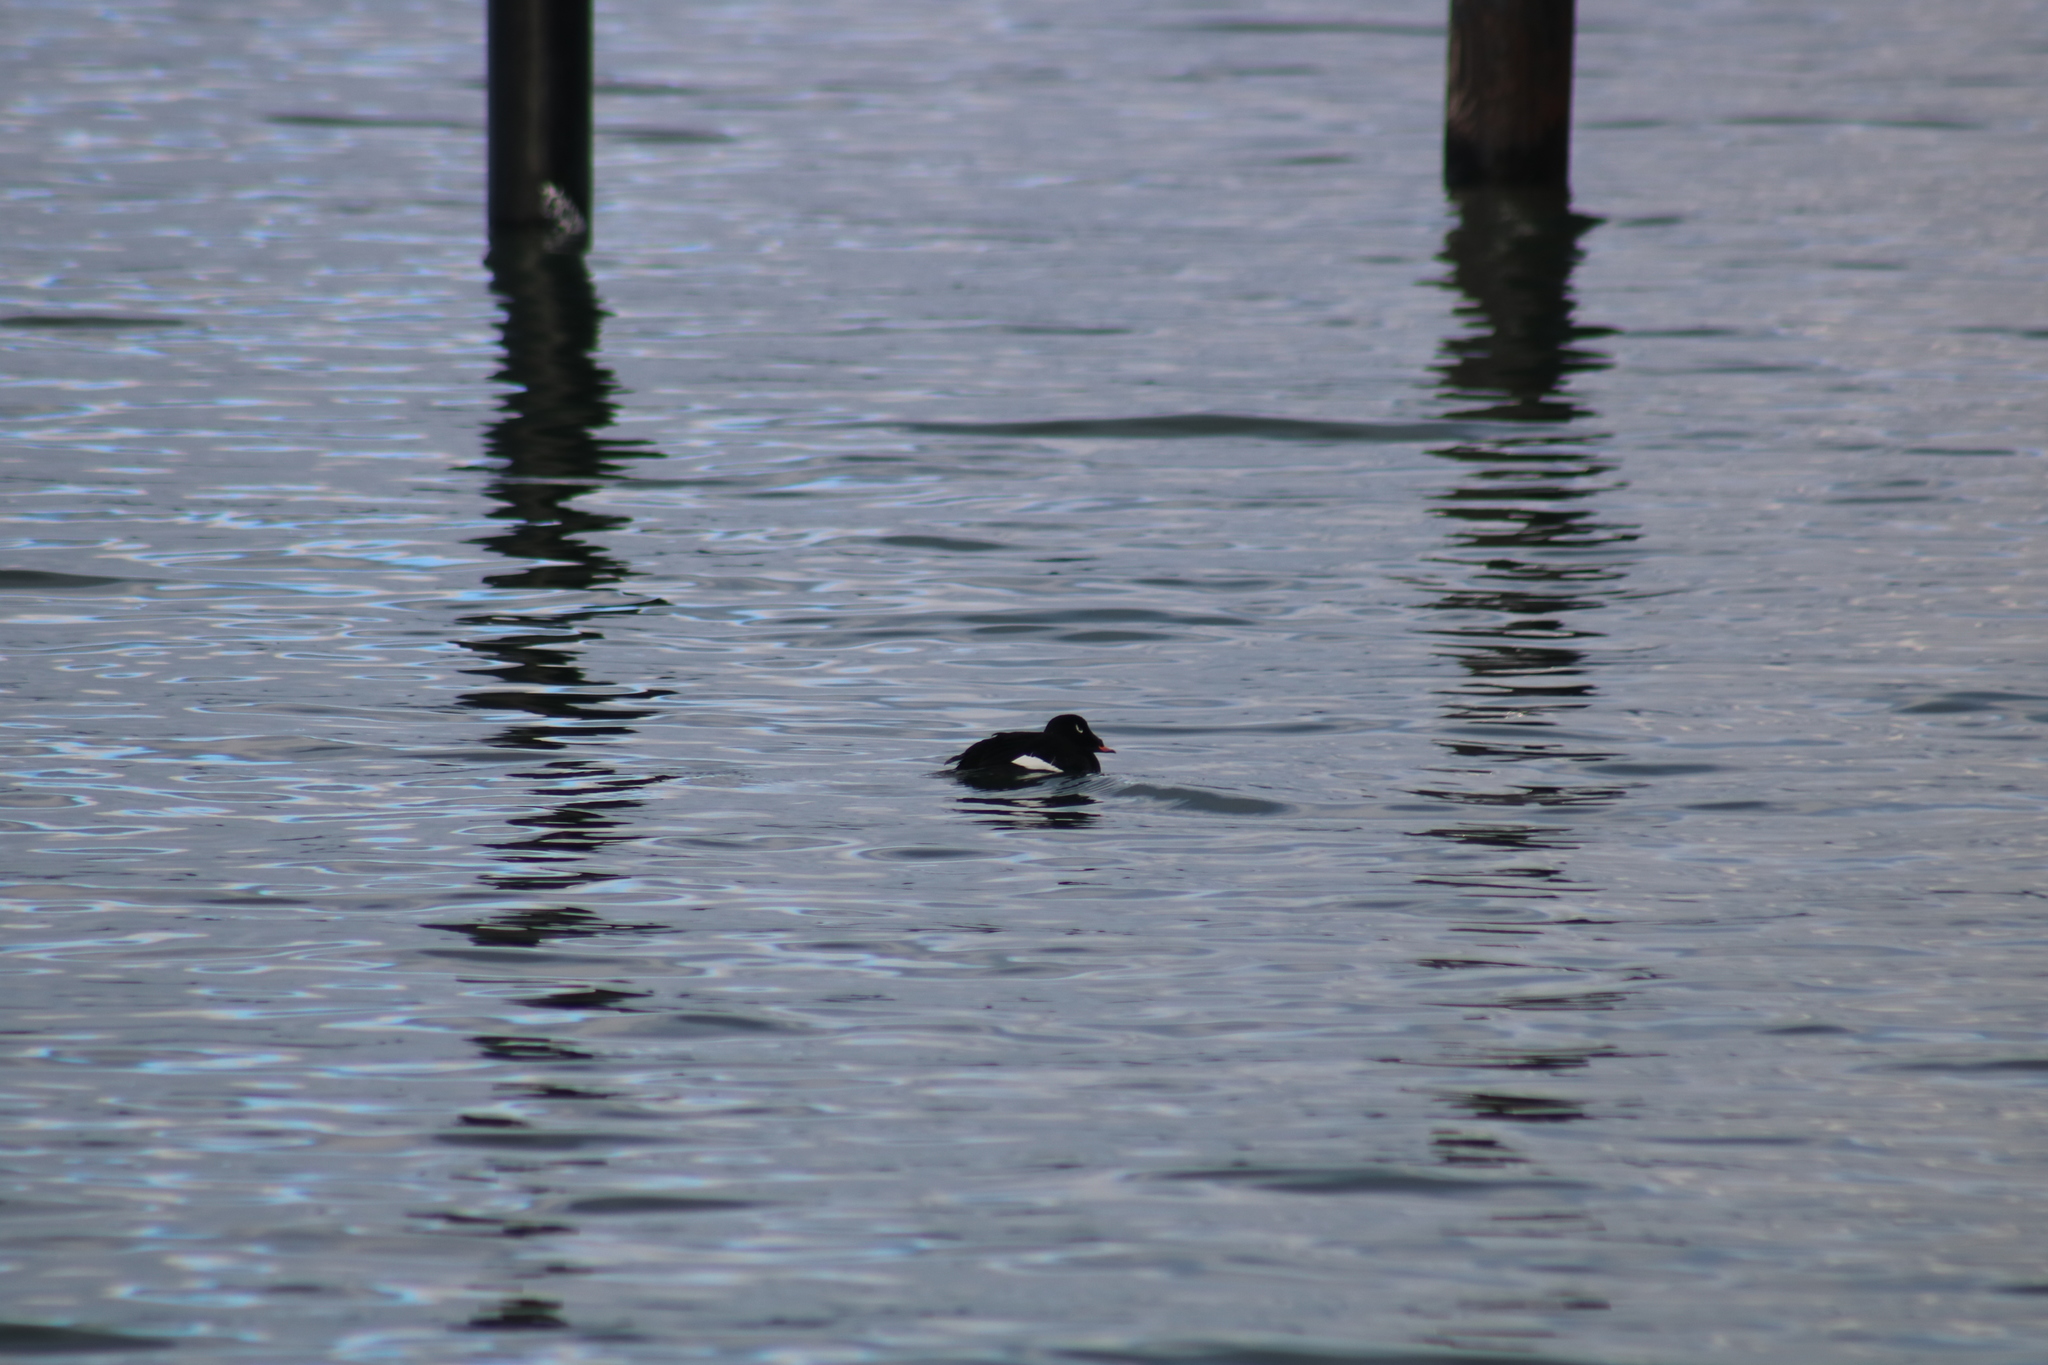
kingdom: Animalia
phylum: Chordata
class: Aves
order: Anseriformes
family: Anatidae
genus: Melanitta
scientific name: Melanitta deglandi
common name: White-winged scoter
